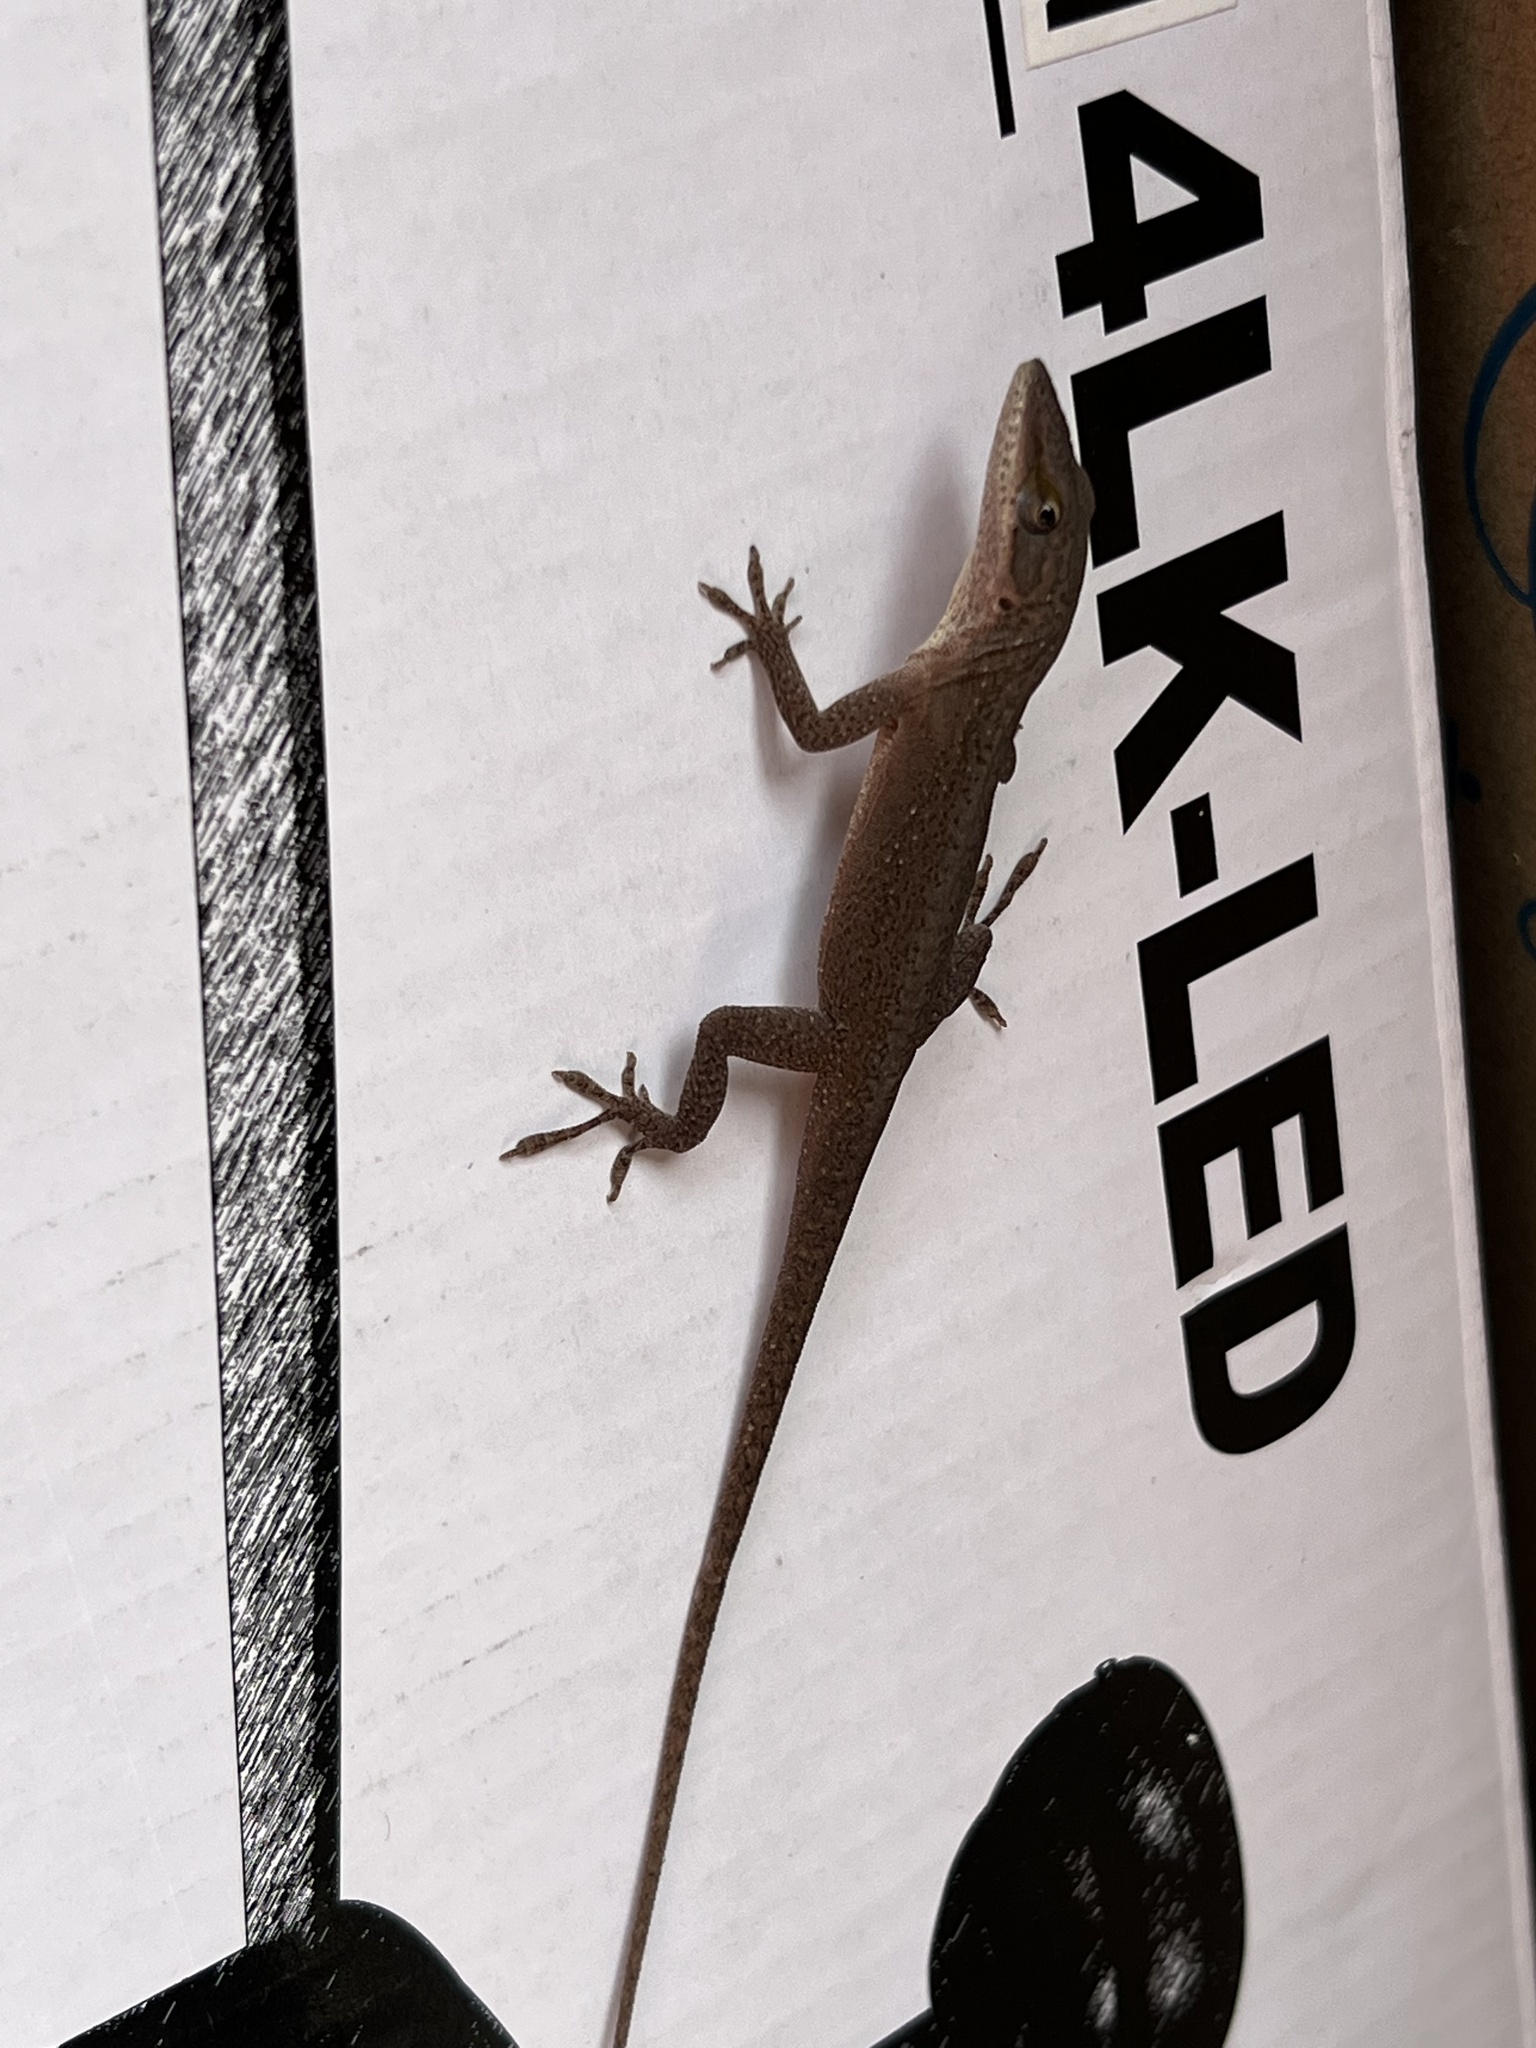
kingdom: Animalia
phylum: Chordata
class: Squamata
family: Dactyloidae
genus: Anolis
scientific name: Anolis carolinensis
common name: Green anole
